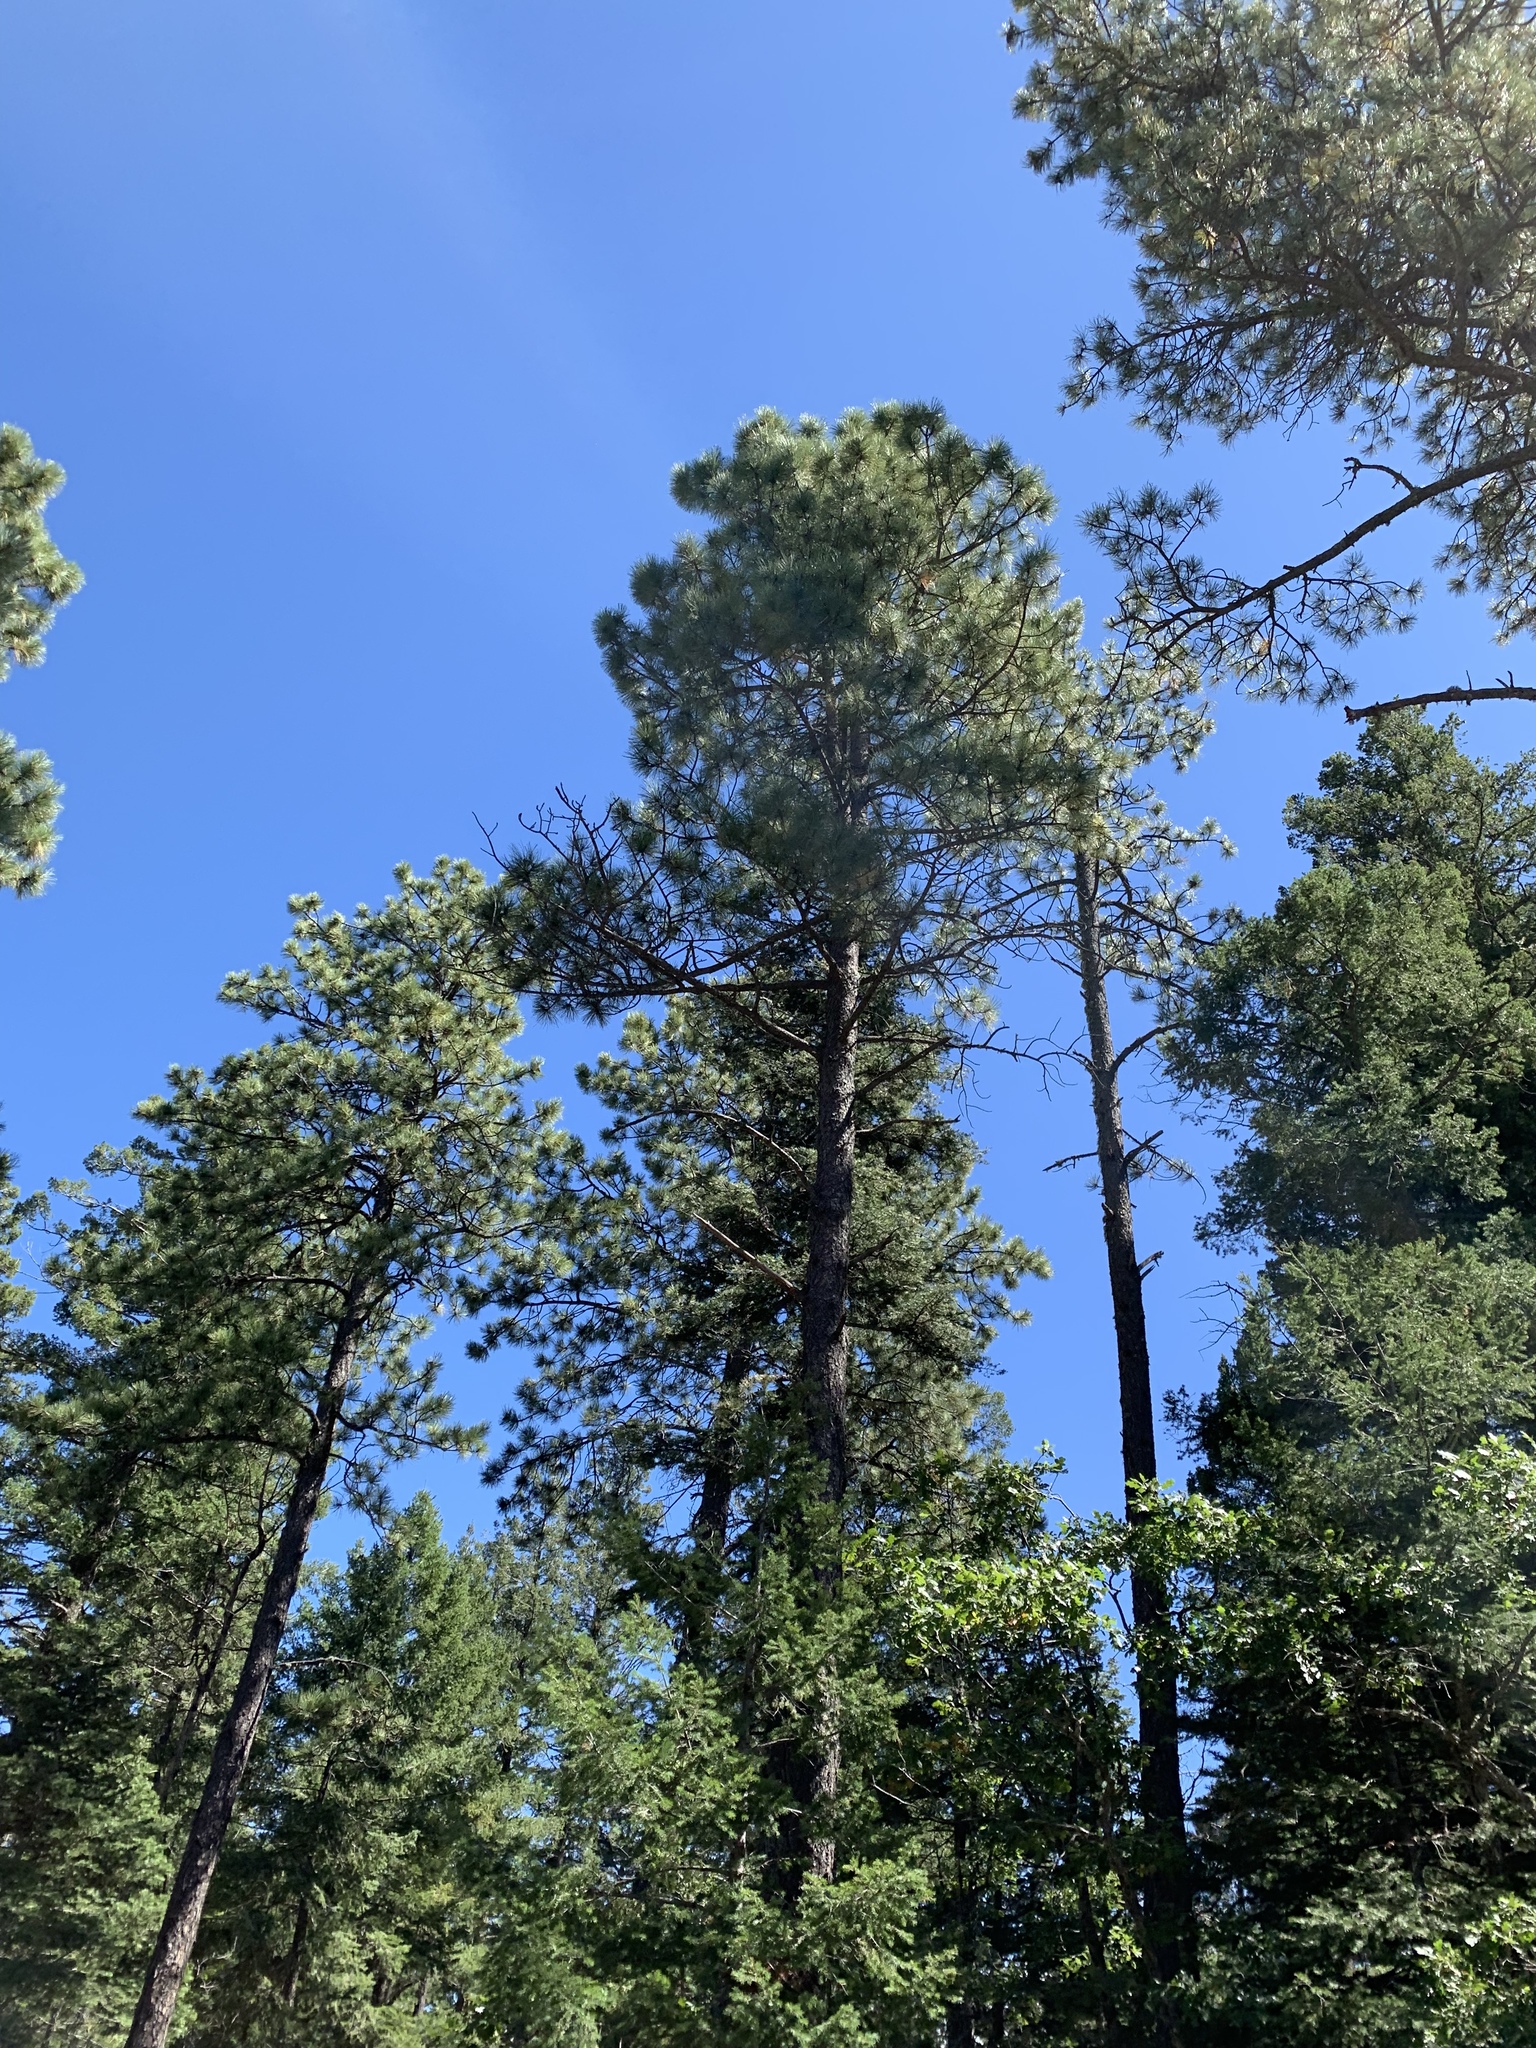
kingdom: Plantae
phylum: Tracheophyta
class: Pinopsida
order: Pinales
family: Pinaceae
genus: Pinus
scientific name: Pinus ponderosa
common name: Western yellow-pine
